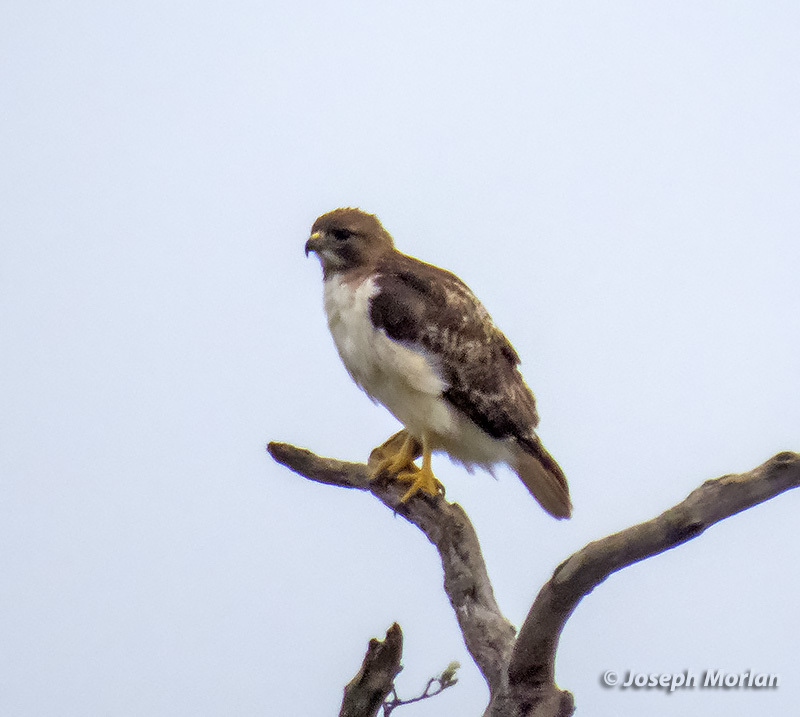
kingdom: Animalia
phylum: Chordata
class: Aves
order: Accipitriformes
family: Accipitridae
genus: Buteo
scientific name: Buteo jamaicensis
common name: Red-tailed hawk
